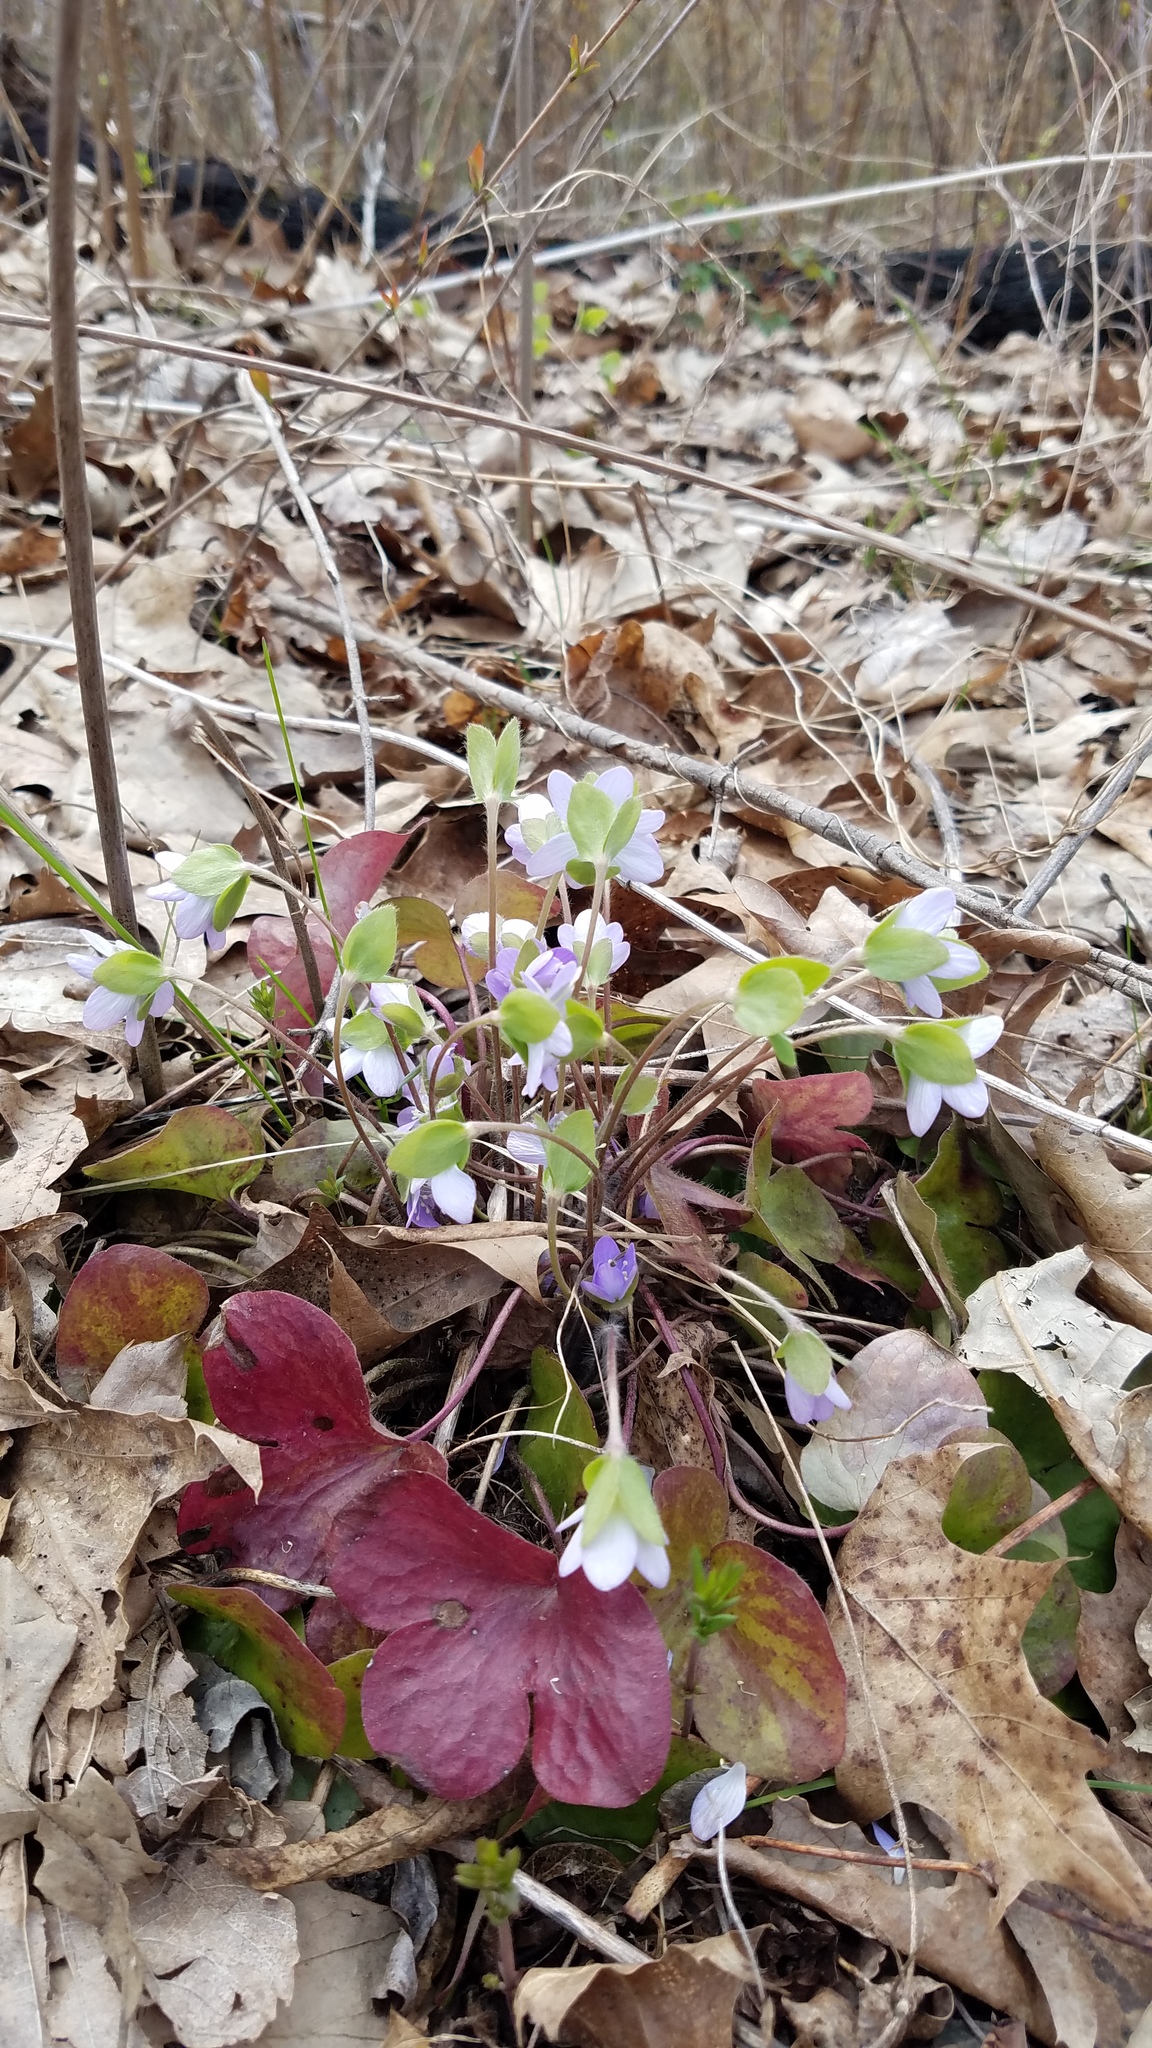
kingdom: Plantae
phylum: Tracheophyta
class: Magnoliopsida
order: Ranunculales
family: Ranunculaceae
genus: Hepatica
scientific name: Hepatica americana
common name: American hepatica
